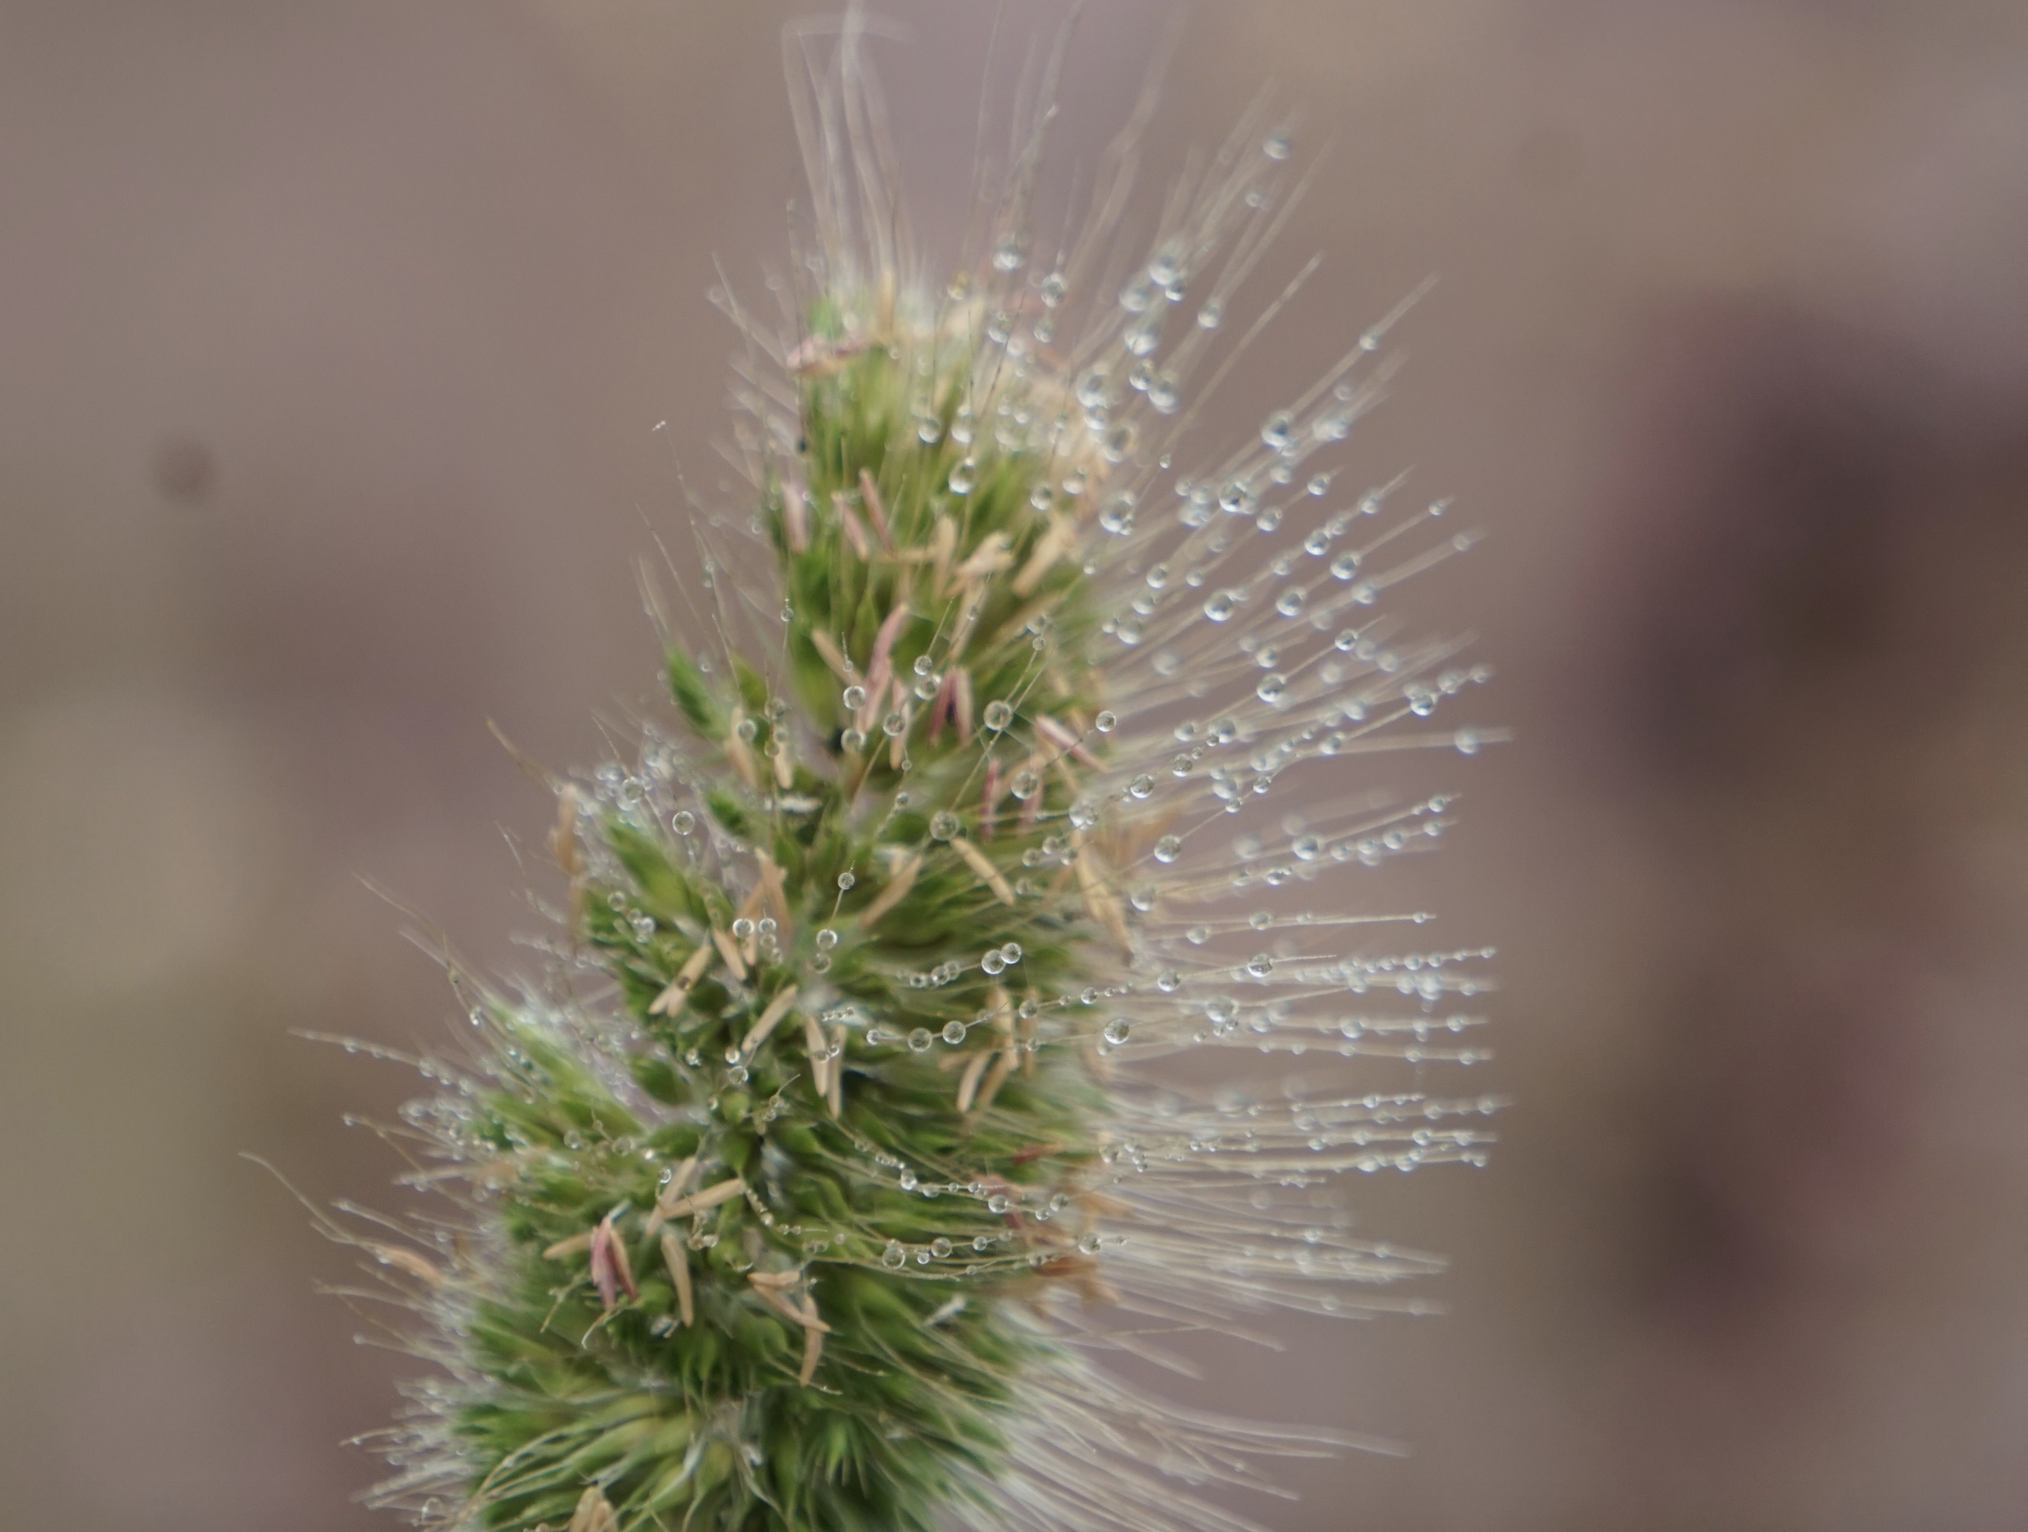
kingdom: Plantae
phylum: Tracheophyta
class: Liliopsida
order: Poales
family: Poaceae
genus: Cynosurus
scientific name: Cynosurus echinatus
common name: Rough dog's-tail
